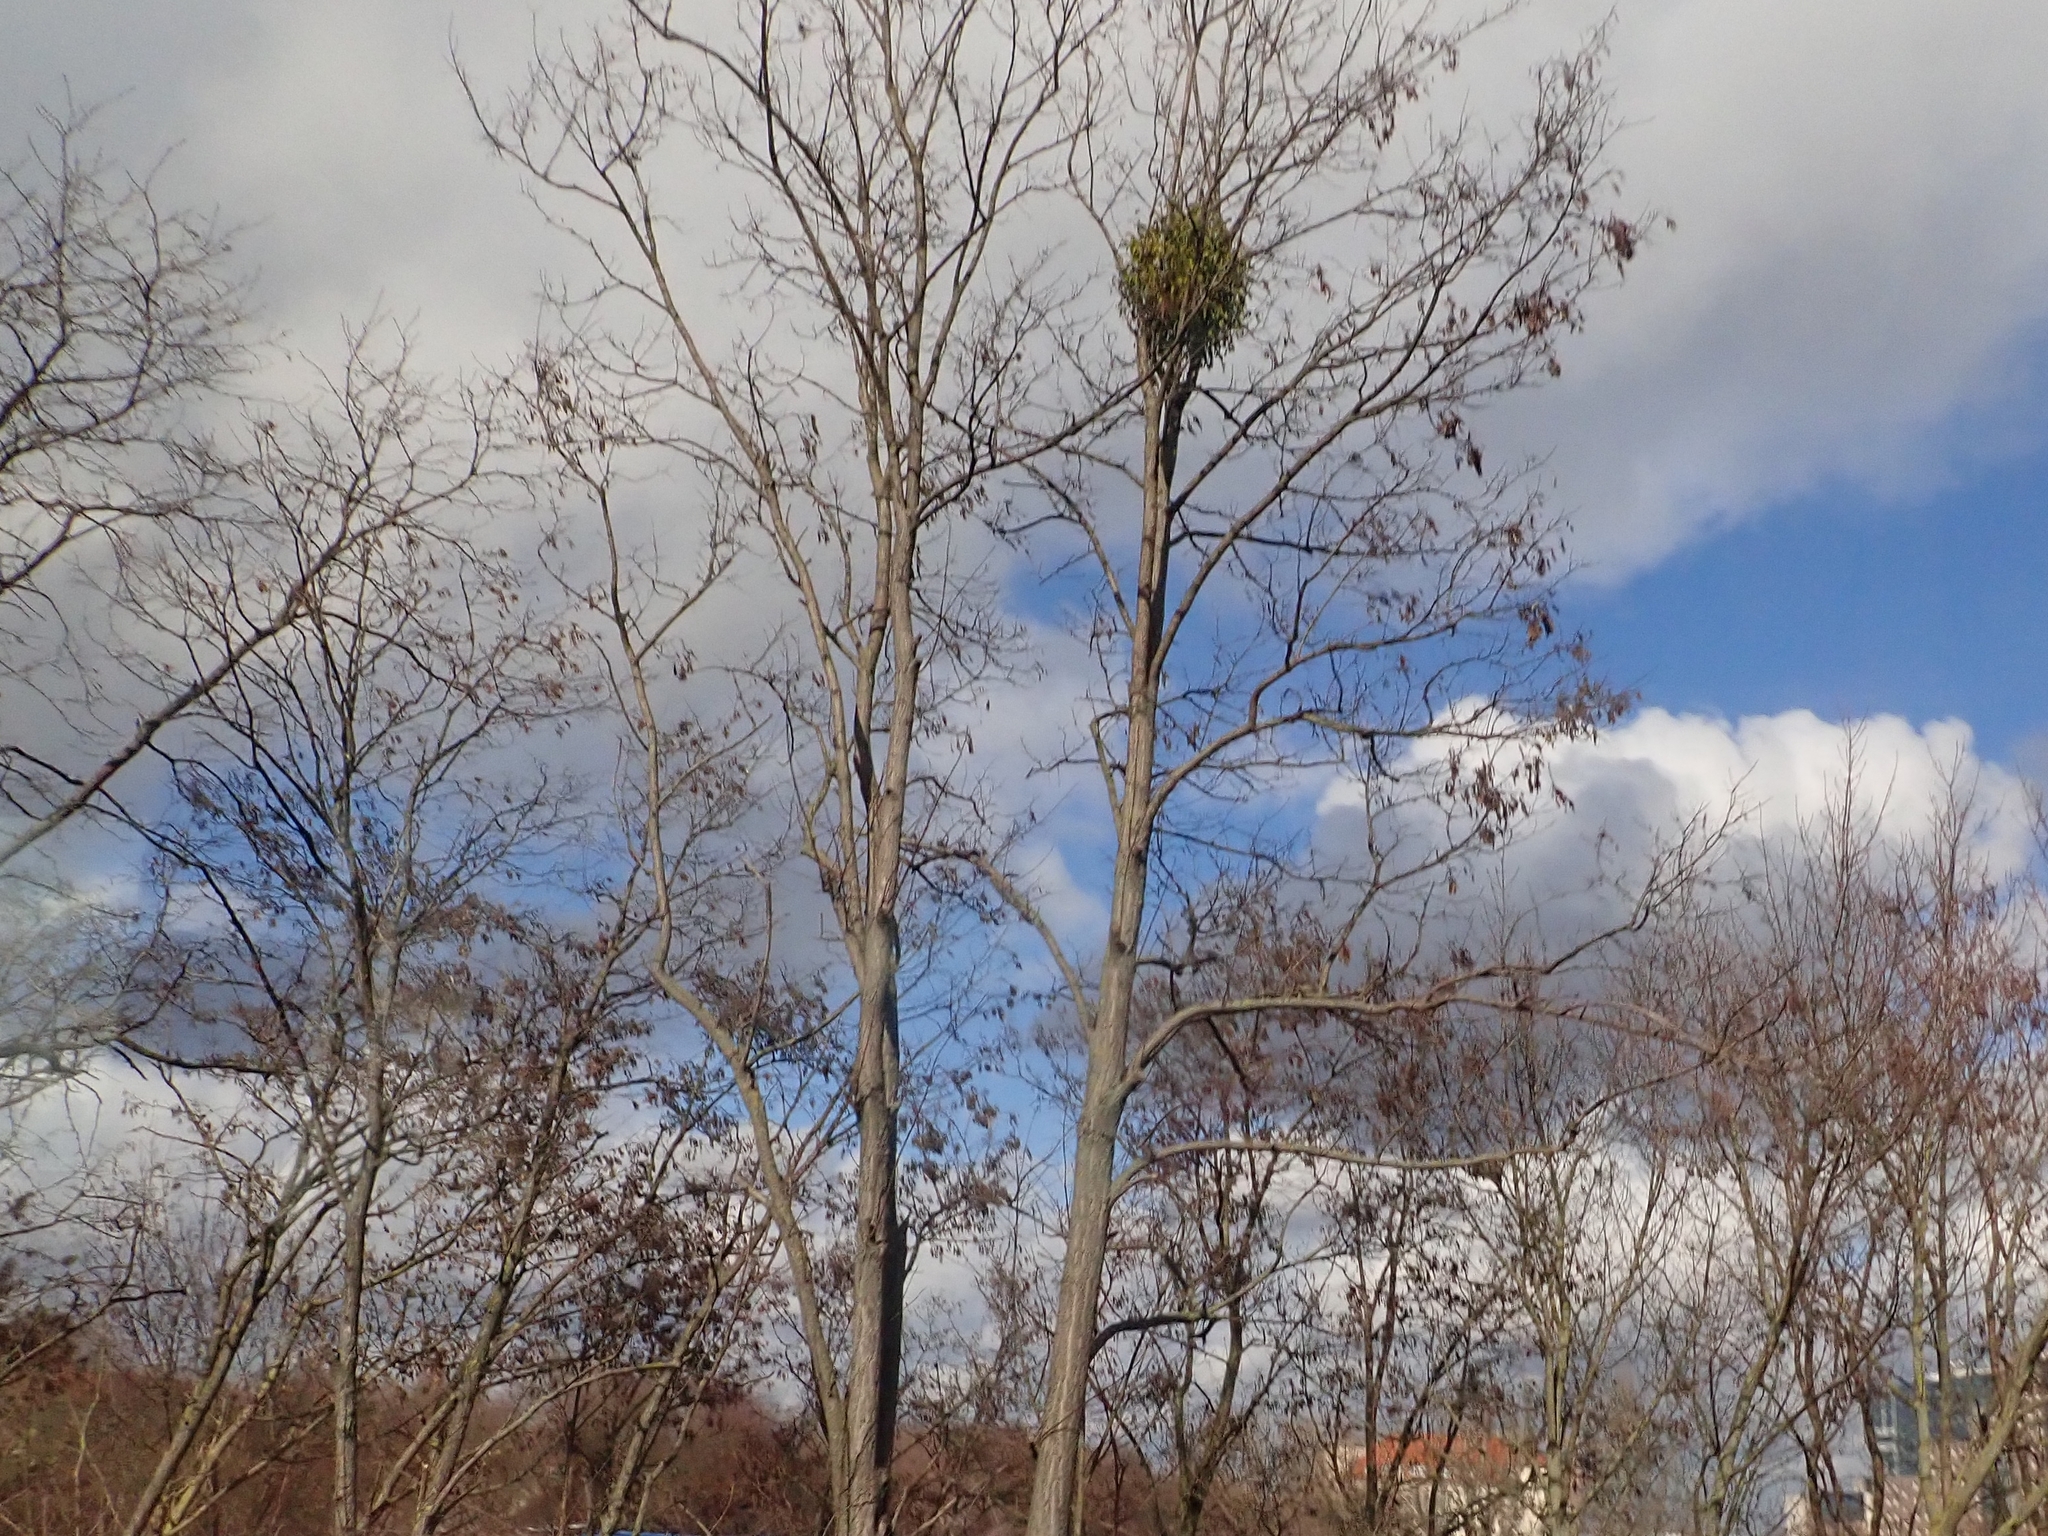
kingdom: Plantae
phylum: Tracheophyta
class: Magnoliopsida
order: Santalales
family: Viscaceae
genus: Viscum
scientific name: Viscum album
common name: Mistletoe
